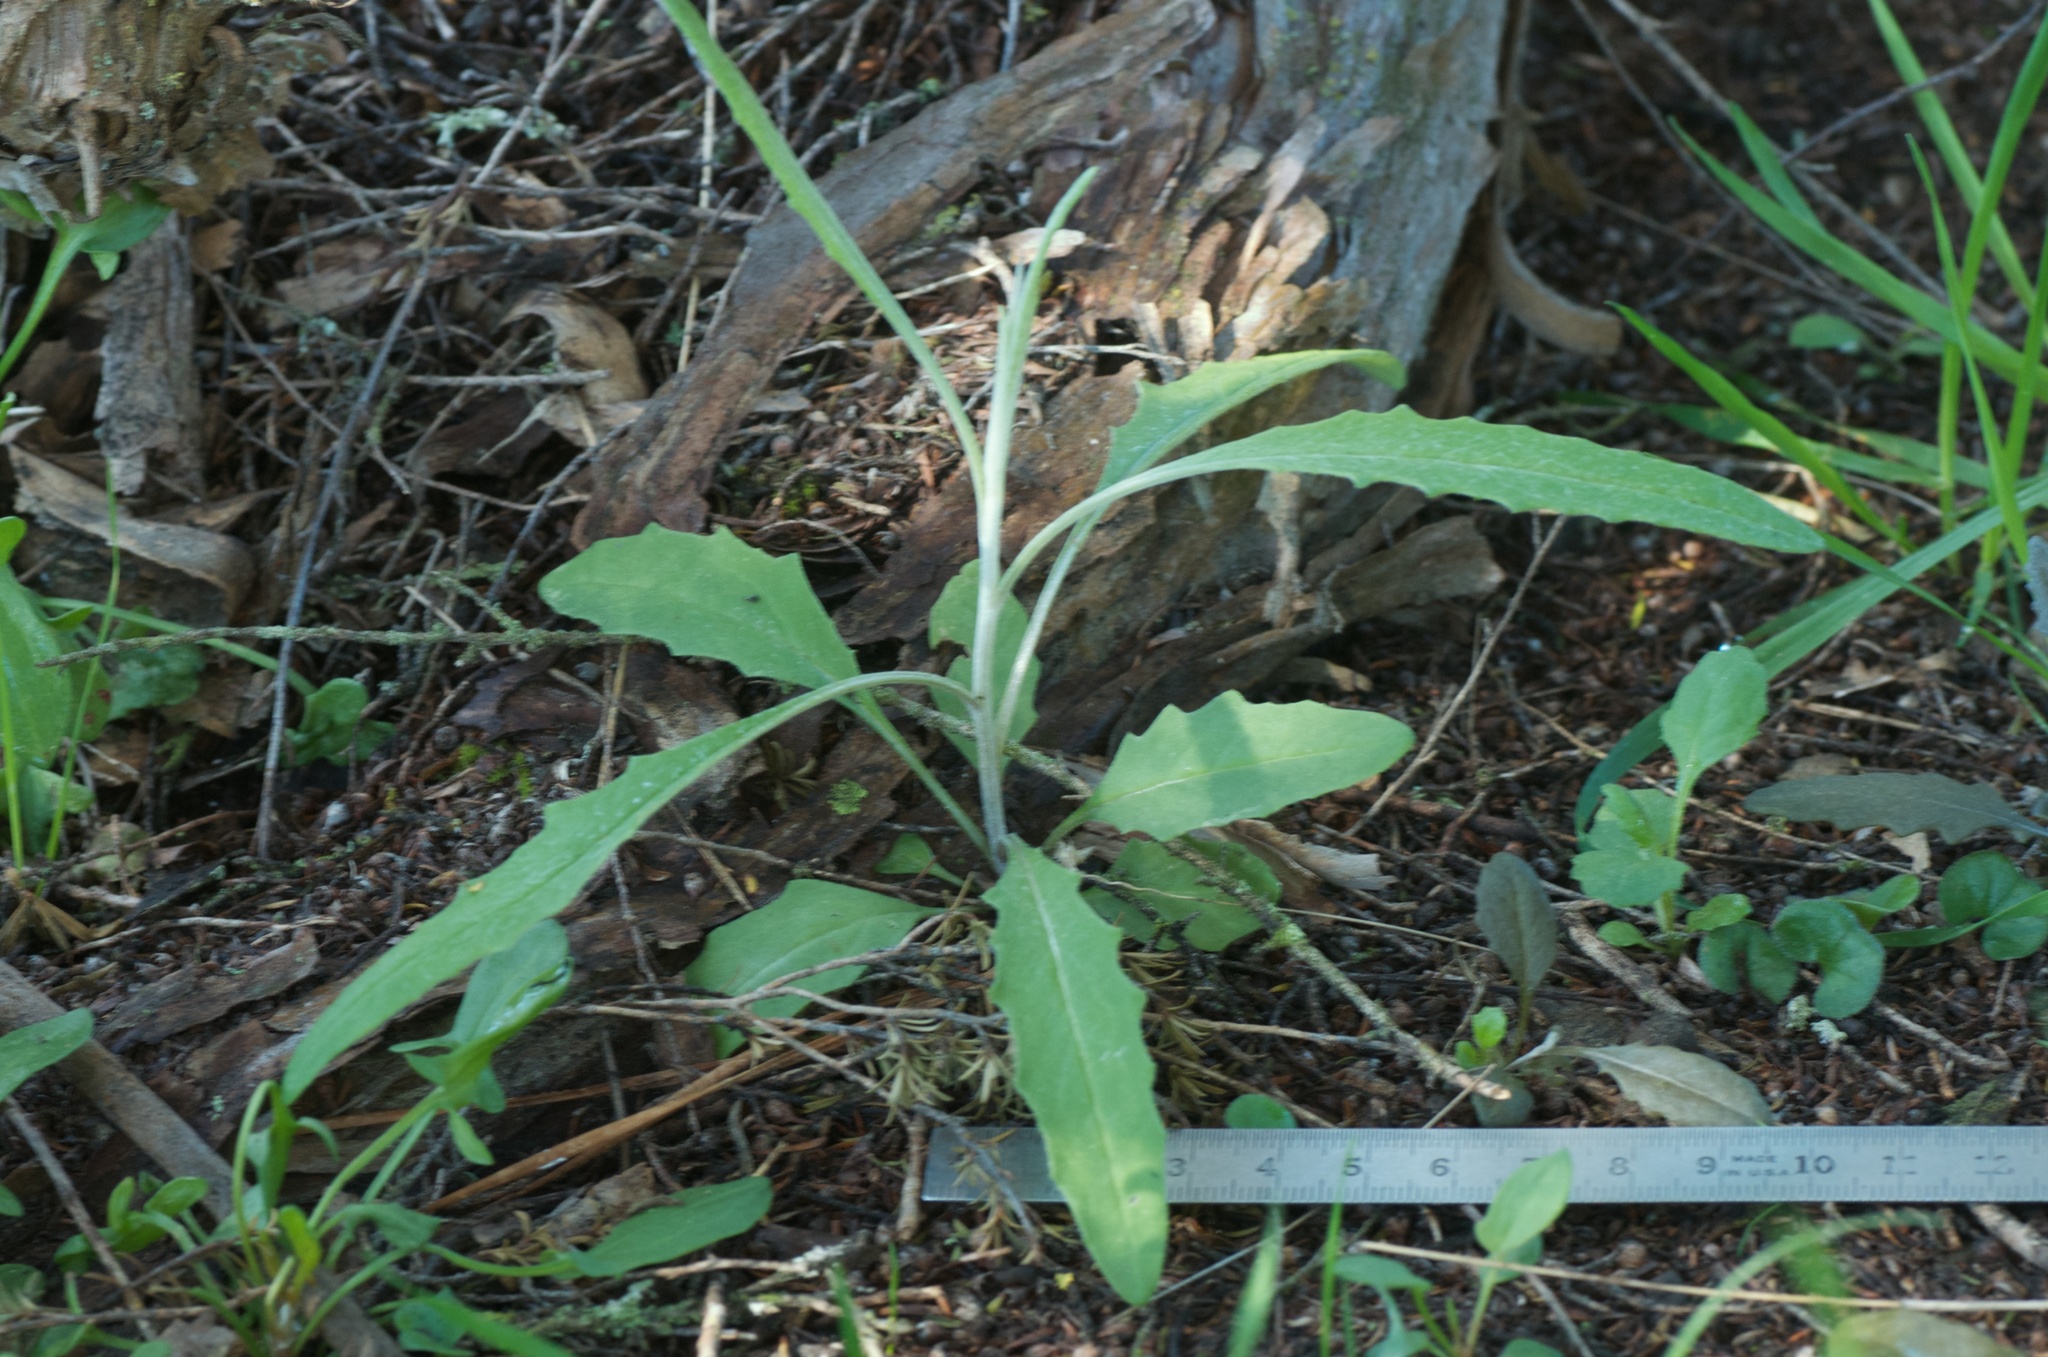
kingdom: Plantae
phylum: Tracheophyta
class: Magnoliopsida
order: Asterales
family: Asteraceae
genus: Senecio
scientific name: Senecio quadridentatus
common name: Cotton fireweed
